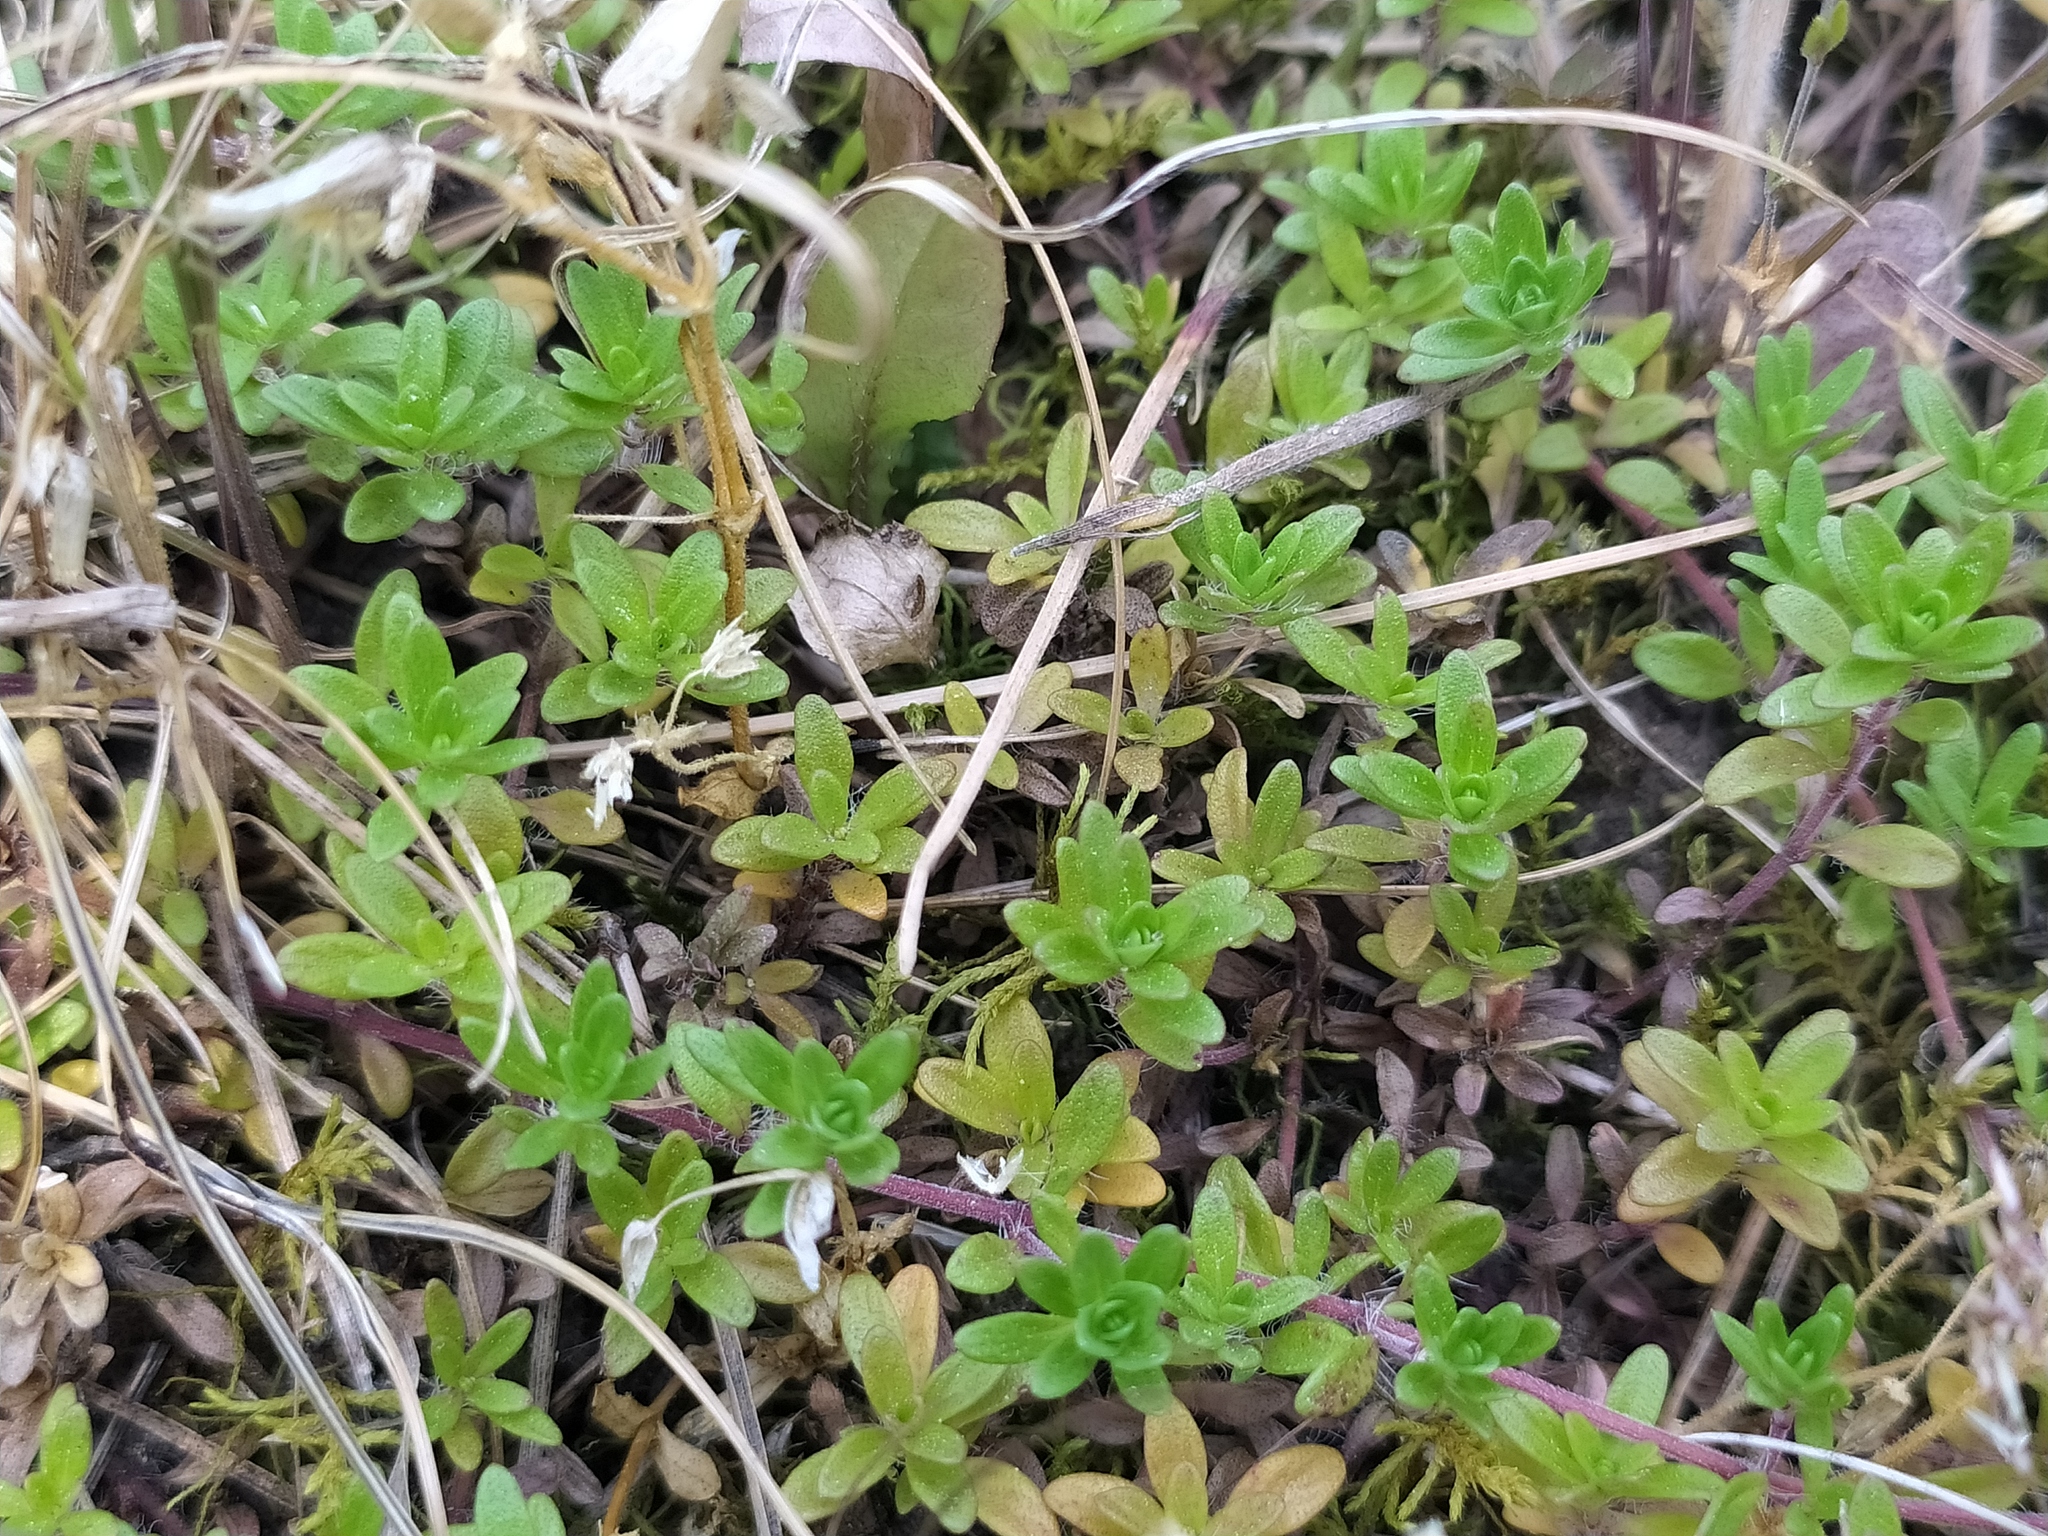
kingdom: Plantae
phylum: Tracheophyta
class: Magnoliopsida
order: Lamiales
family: Lamiaceae
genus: Thymus
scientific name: Thymus serpyllum
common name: Breckland thyme
